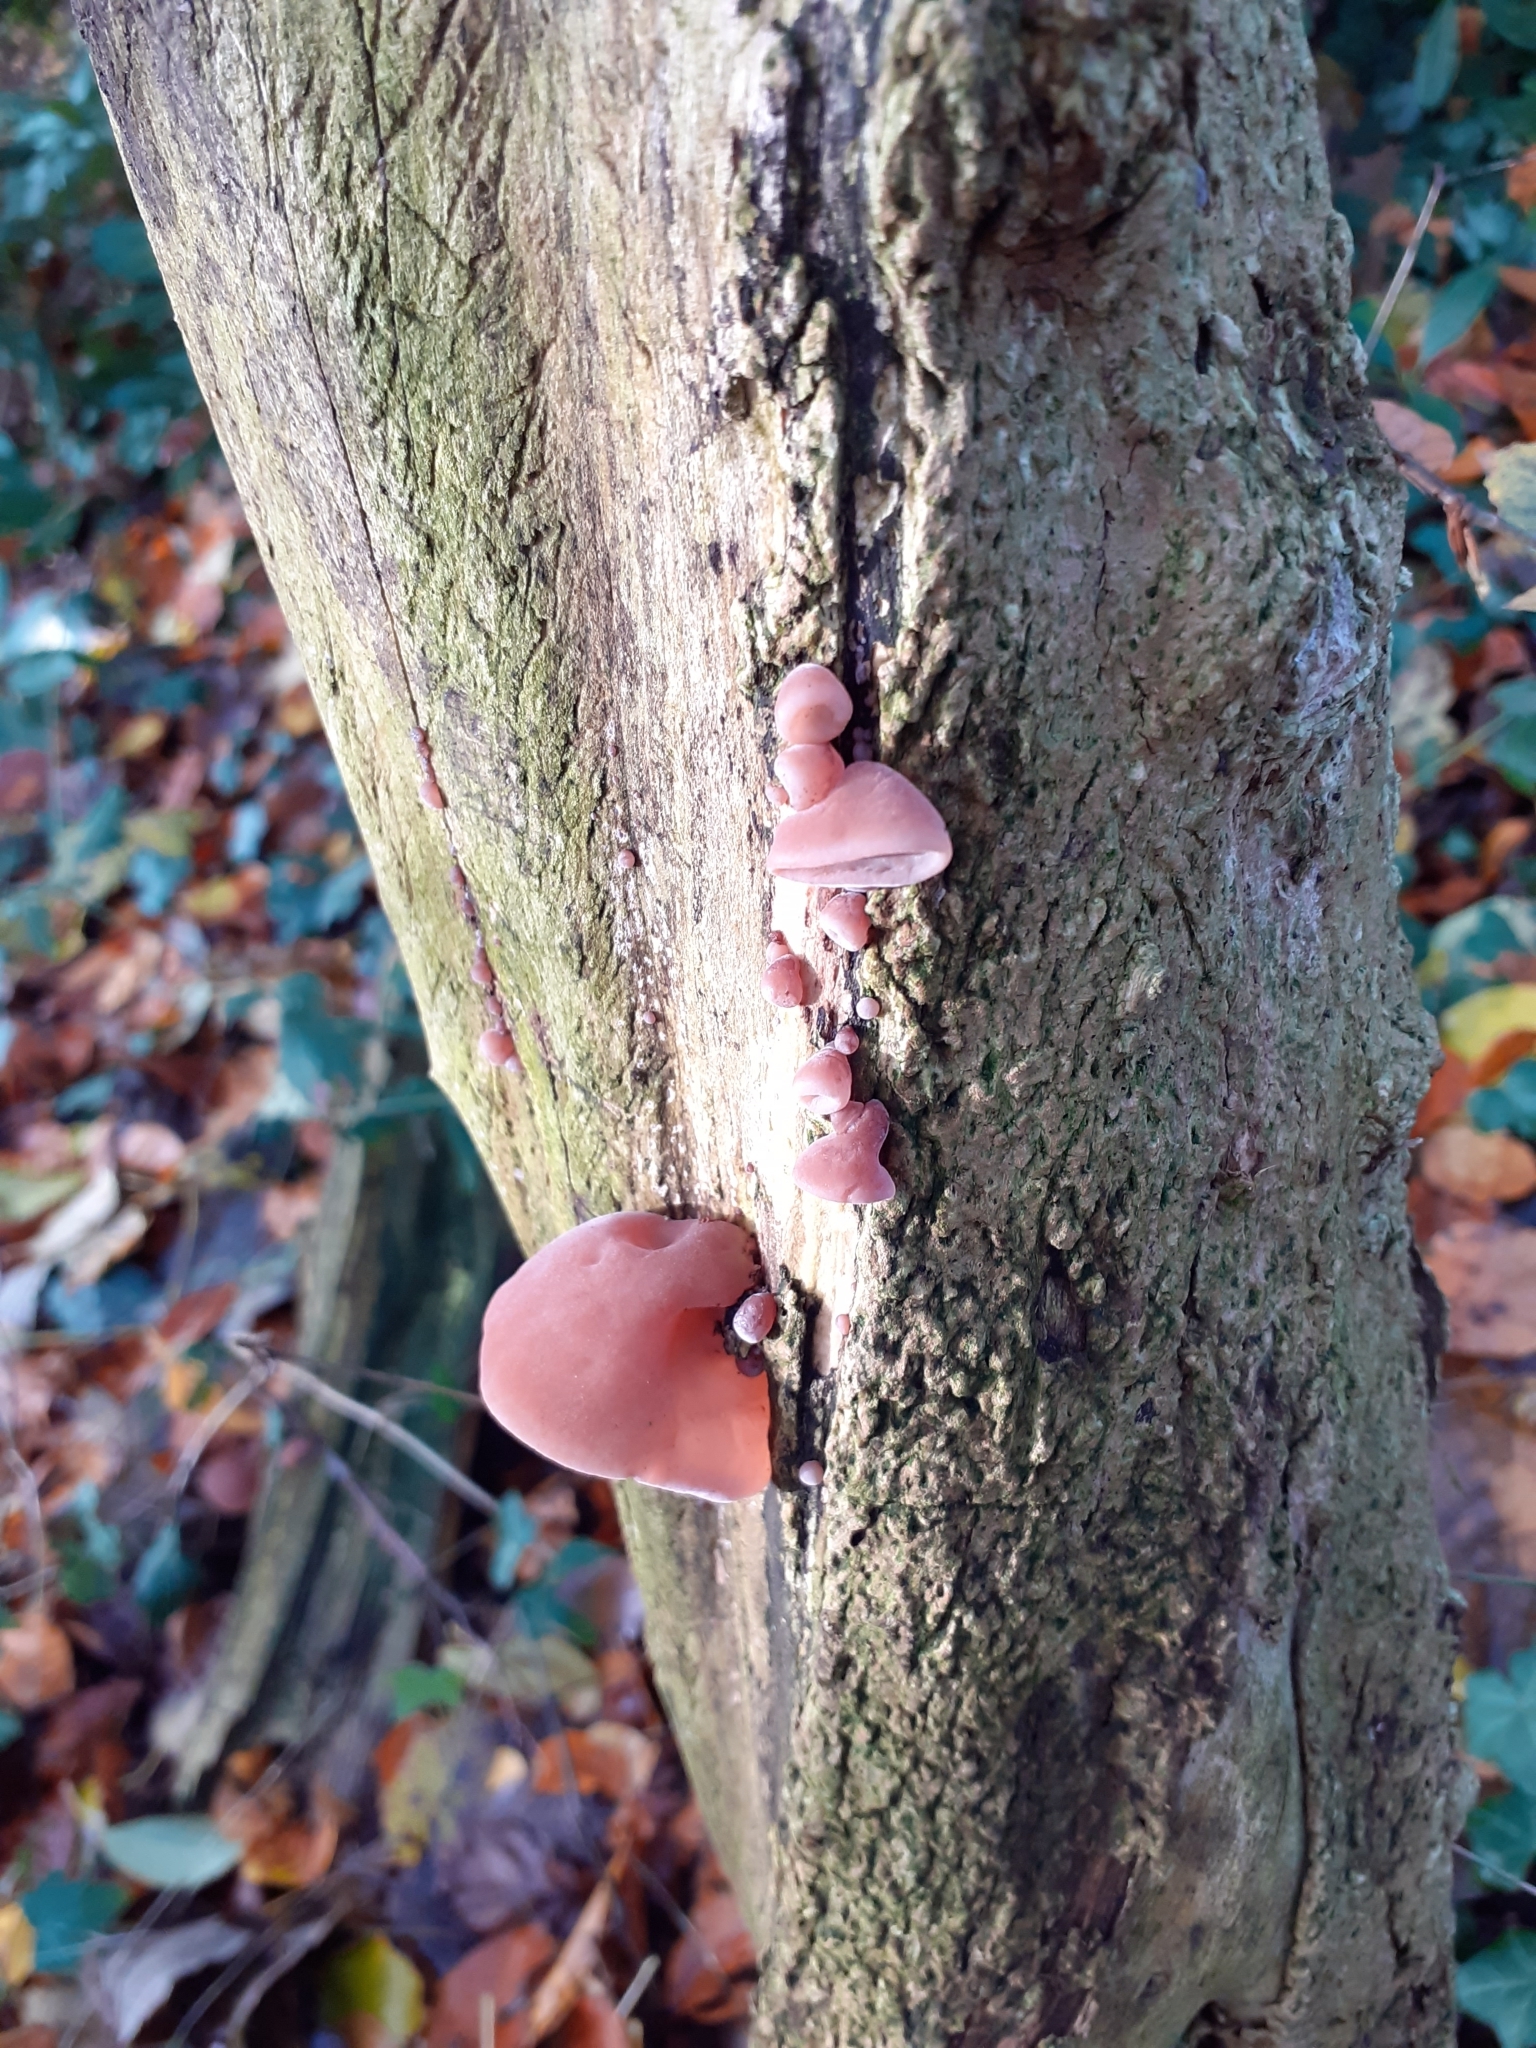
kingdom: Fungi
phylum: Basidiomycota
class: Agaricomycetes
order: Auriculariales
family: Auriculariaceae
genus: Auricularia
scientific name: Auricularia auricula-judae
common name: Jelly ear
